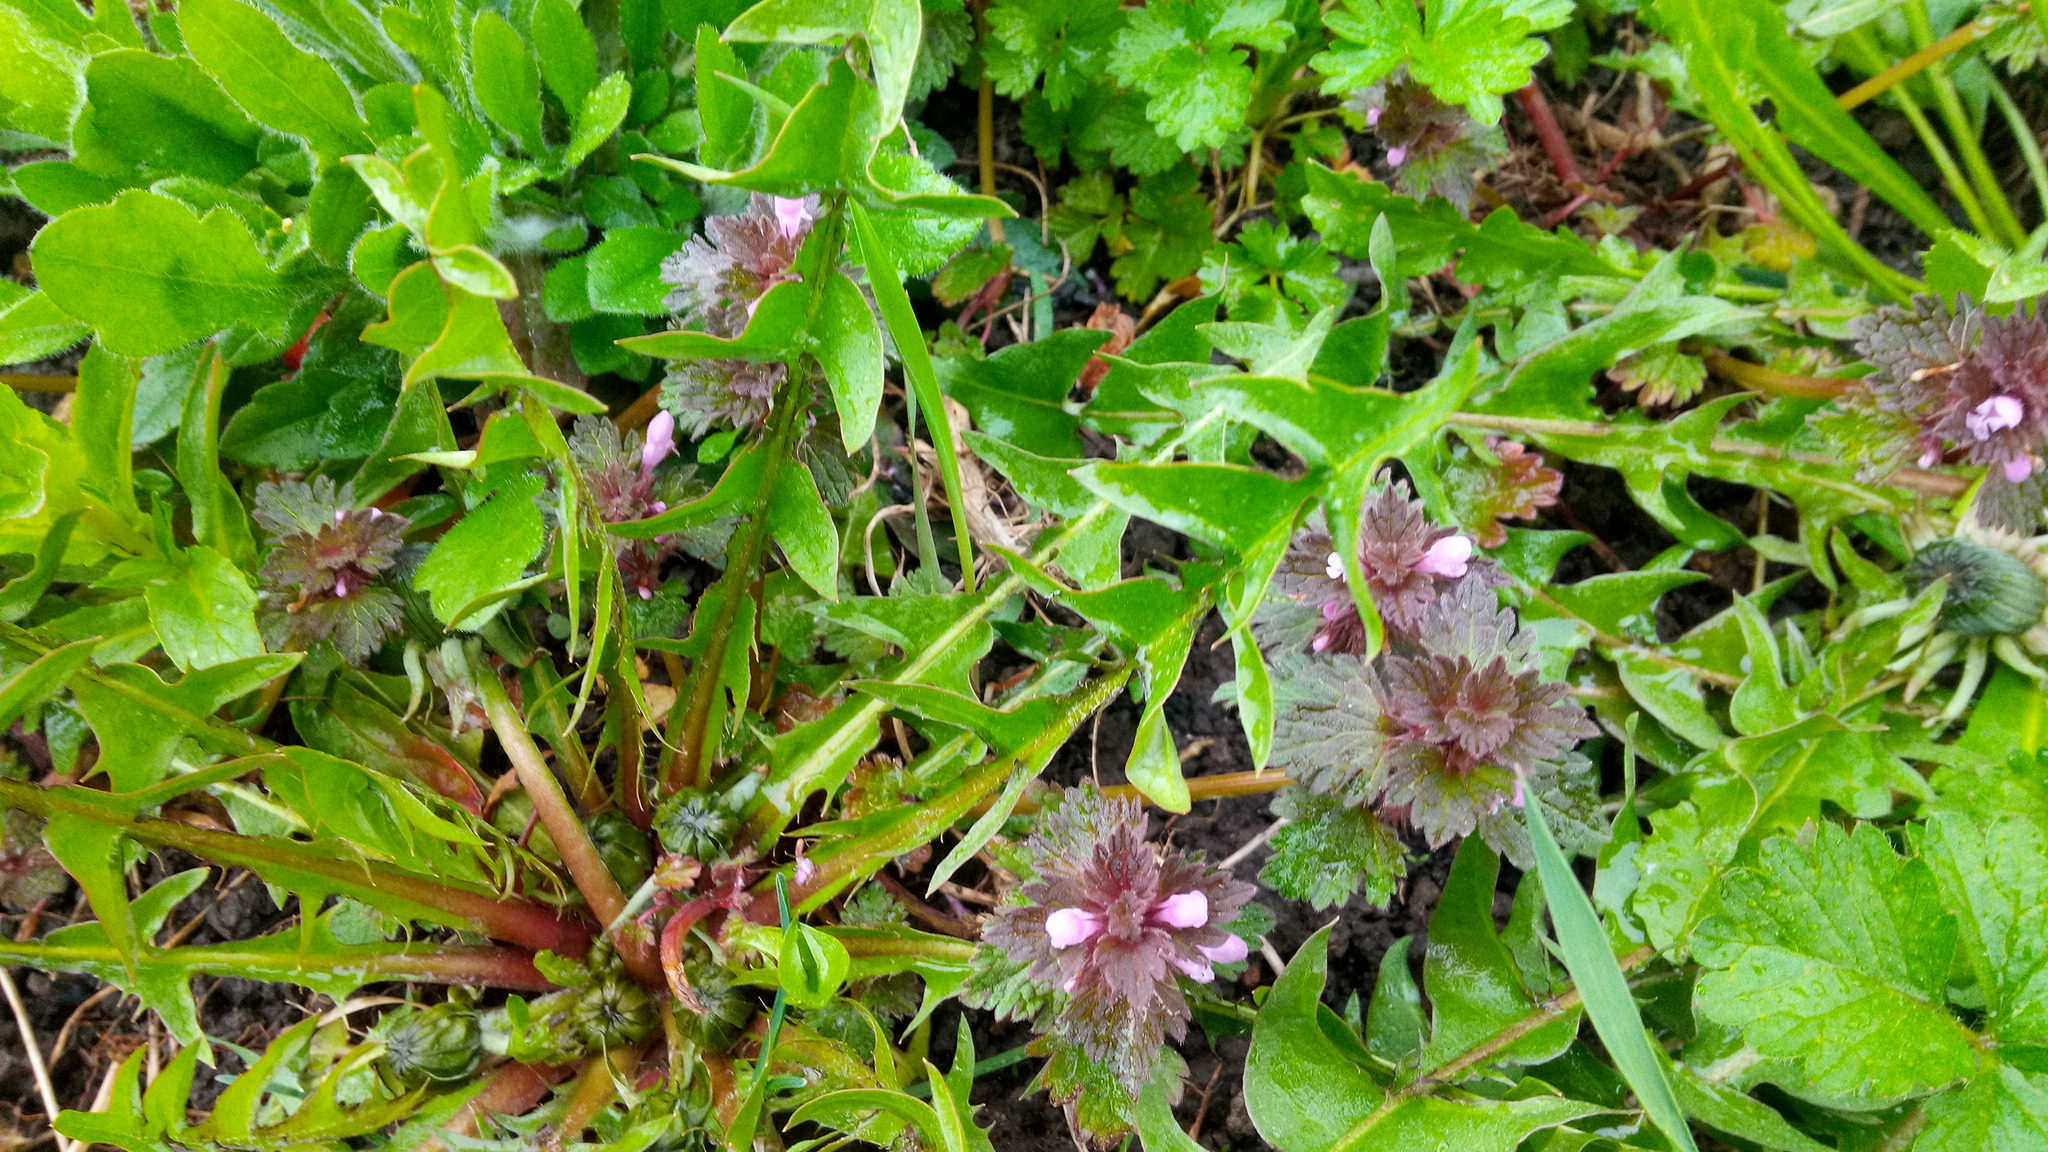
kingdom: Plantae
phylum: Tracheophyta
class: Magnoliopsida
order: Lamiales
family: Lamiaceae
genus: Lamium
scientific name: Lamium purpureum
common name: Red dead-nettle
